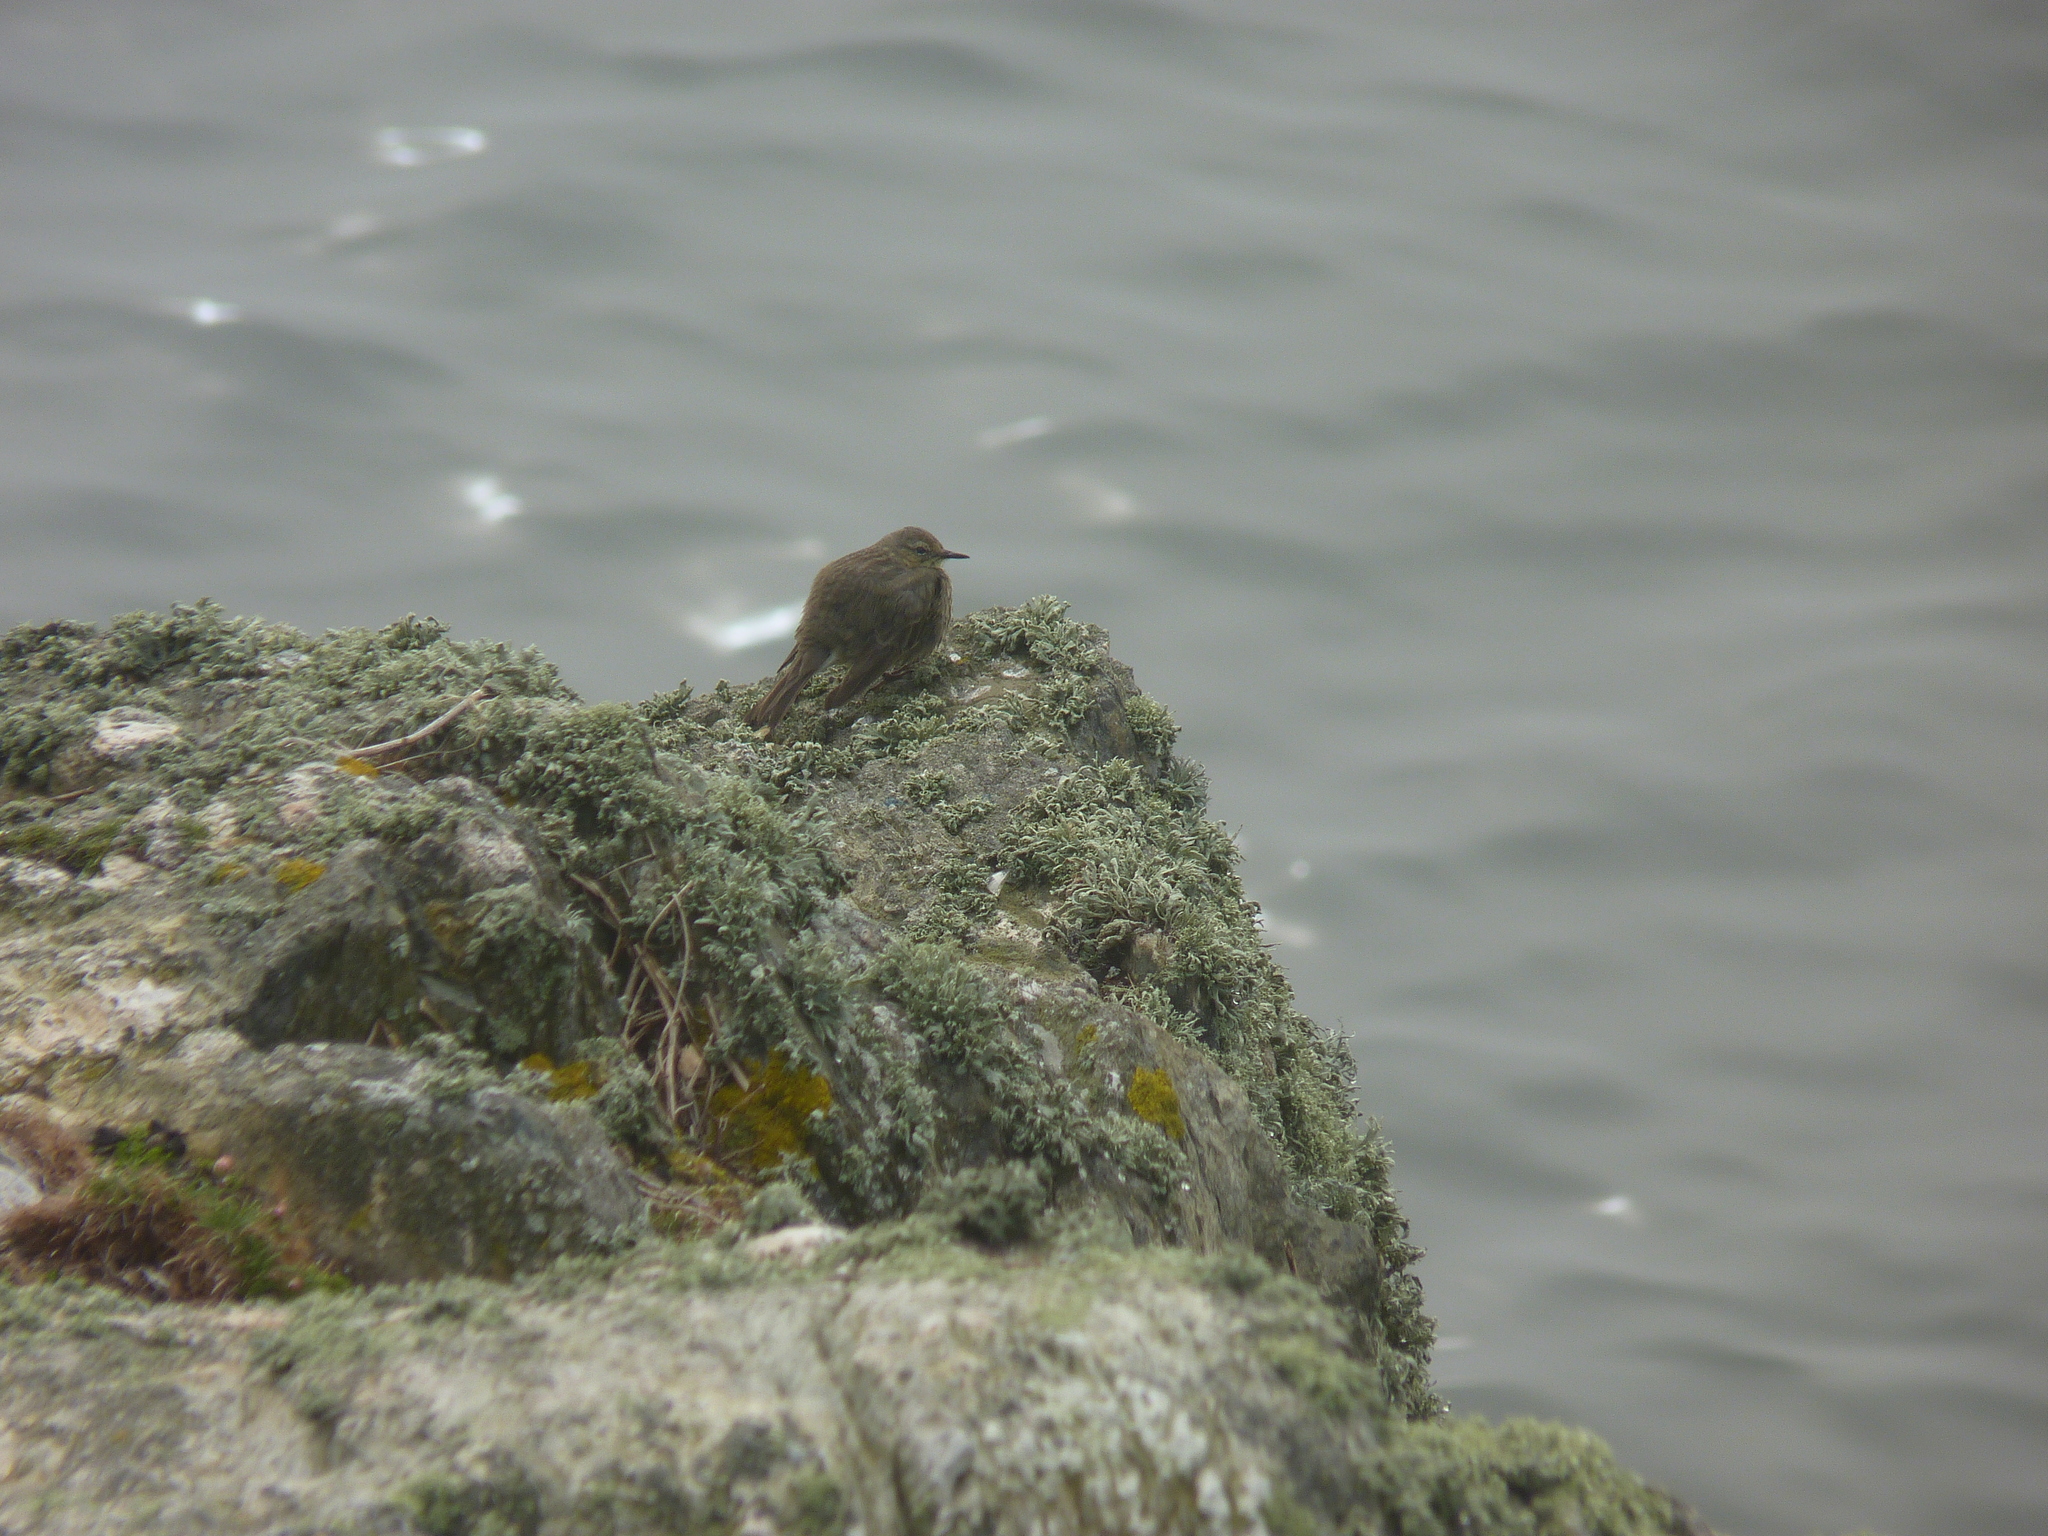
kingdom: Animalia
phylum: Chordata
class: Aves
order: Passeriformes
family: Motacillidae
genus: Anthus
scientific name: Anthus petrosus
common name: Eurasian rock pipit
